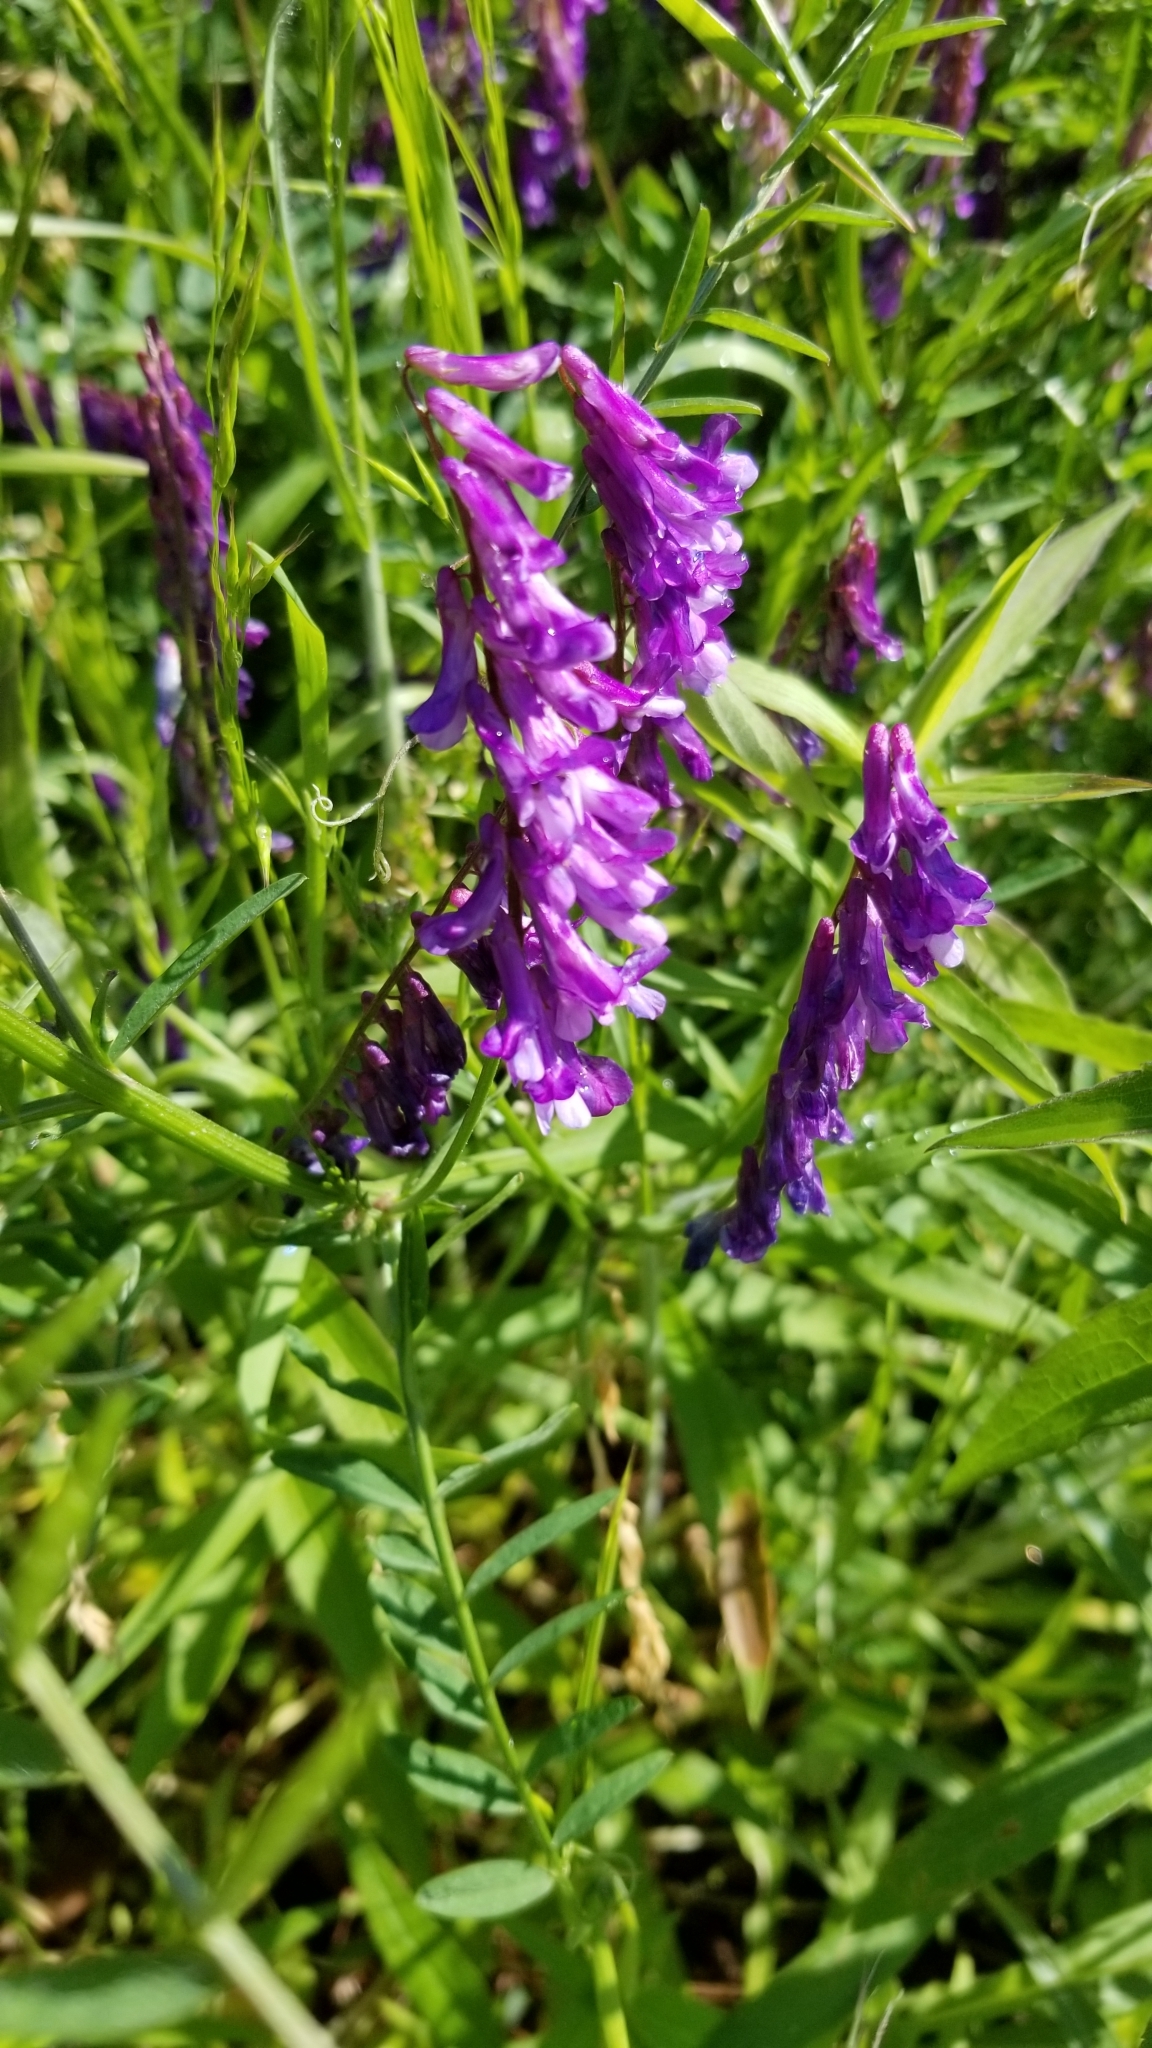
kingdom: Plantae
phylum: Tracheophyta
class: Magnoliopsida
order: Fabales
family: Fabaceae
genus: Vicia
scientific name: Vicia villosa
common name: Fodder vetch
